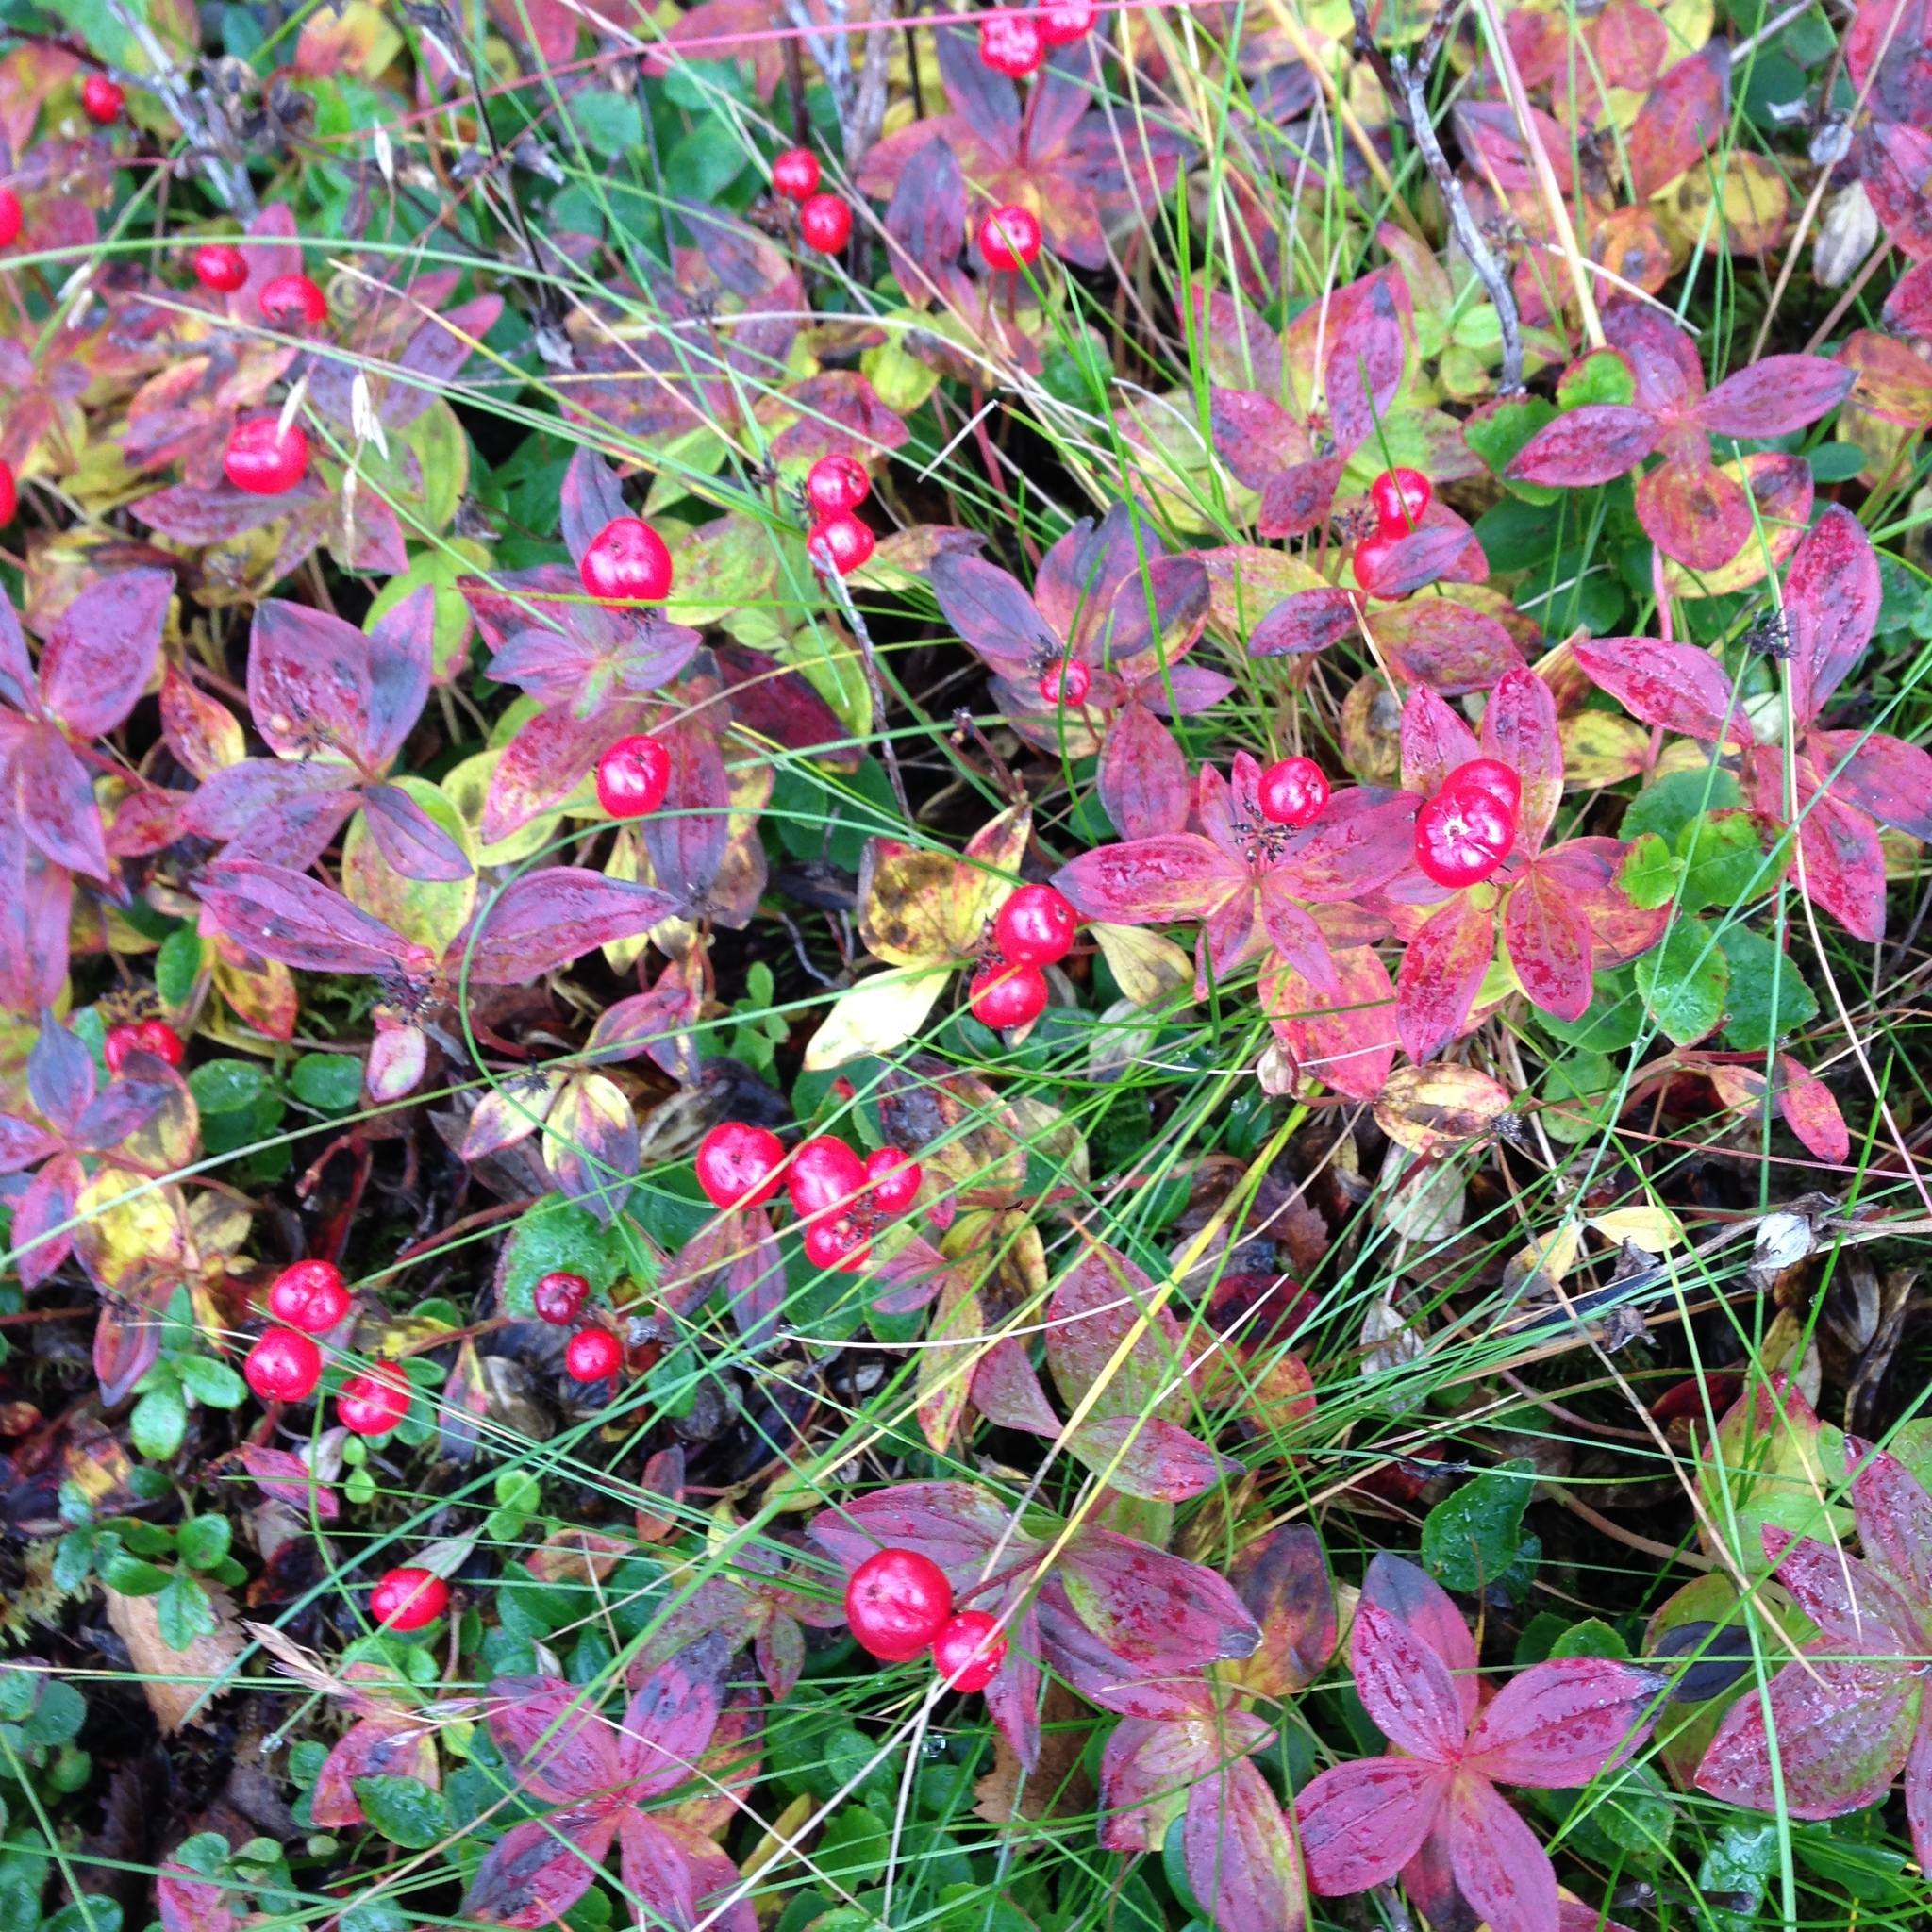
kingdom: Plantae
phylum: Tracheophyta
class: Magnoliopsida
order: Cornales
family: Cornaceae
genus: Cornus
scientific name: Cornus suecica
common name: Dwarf cornel
